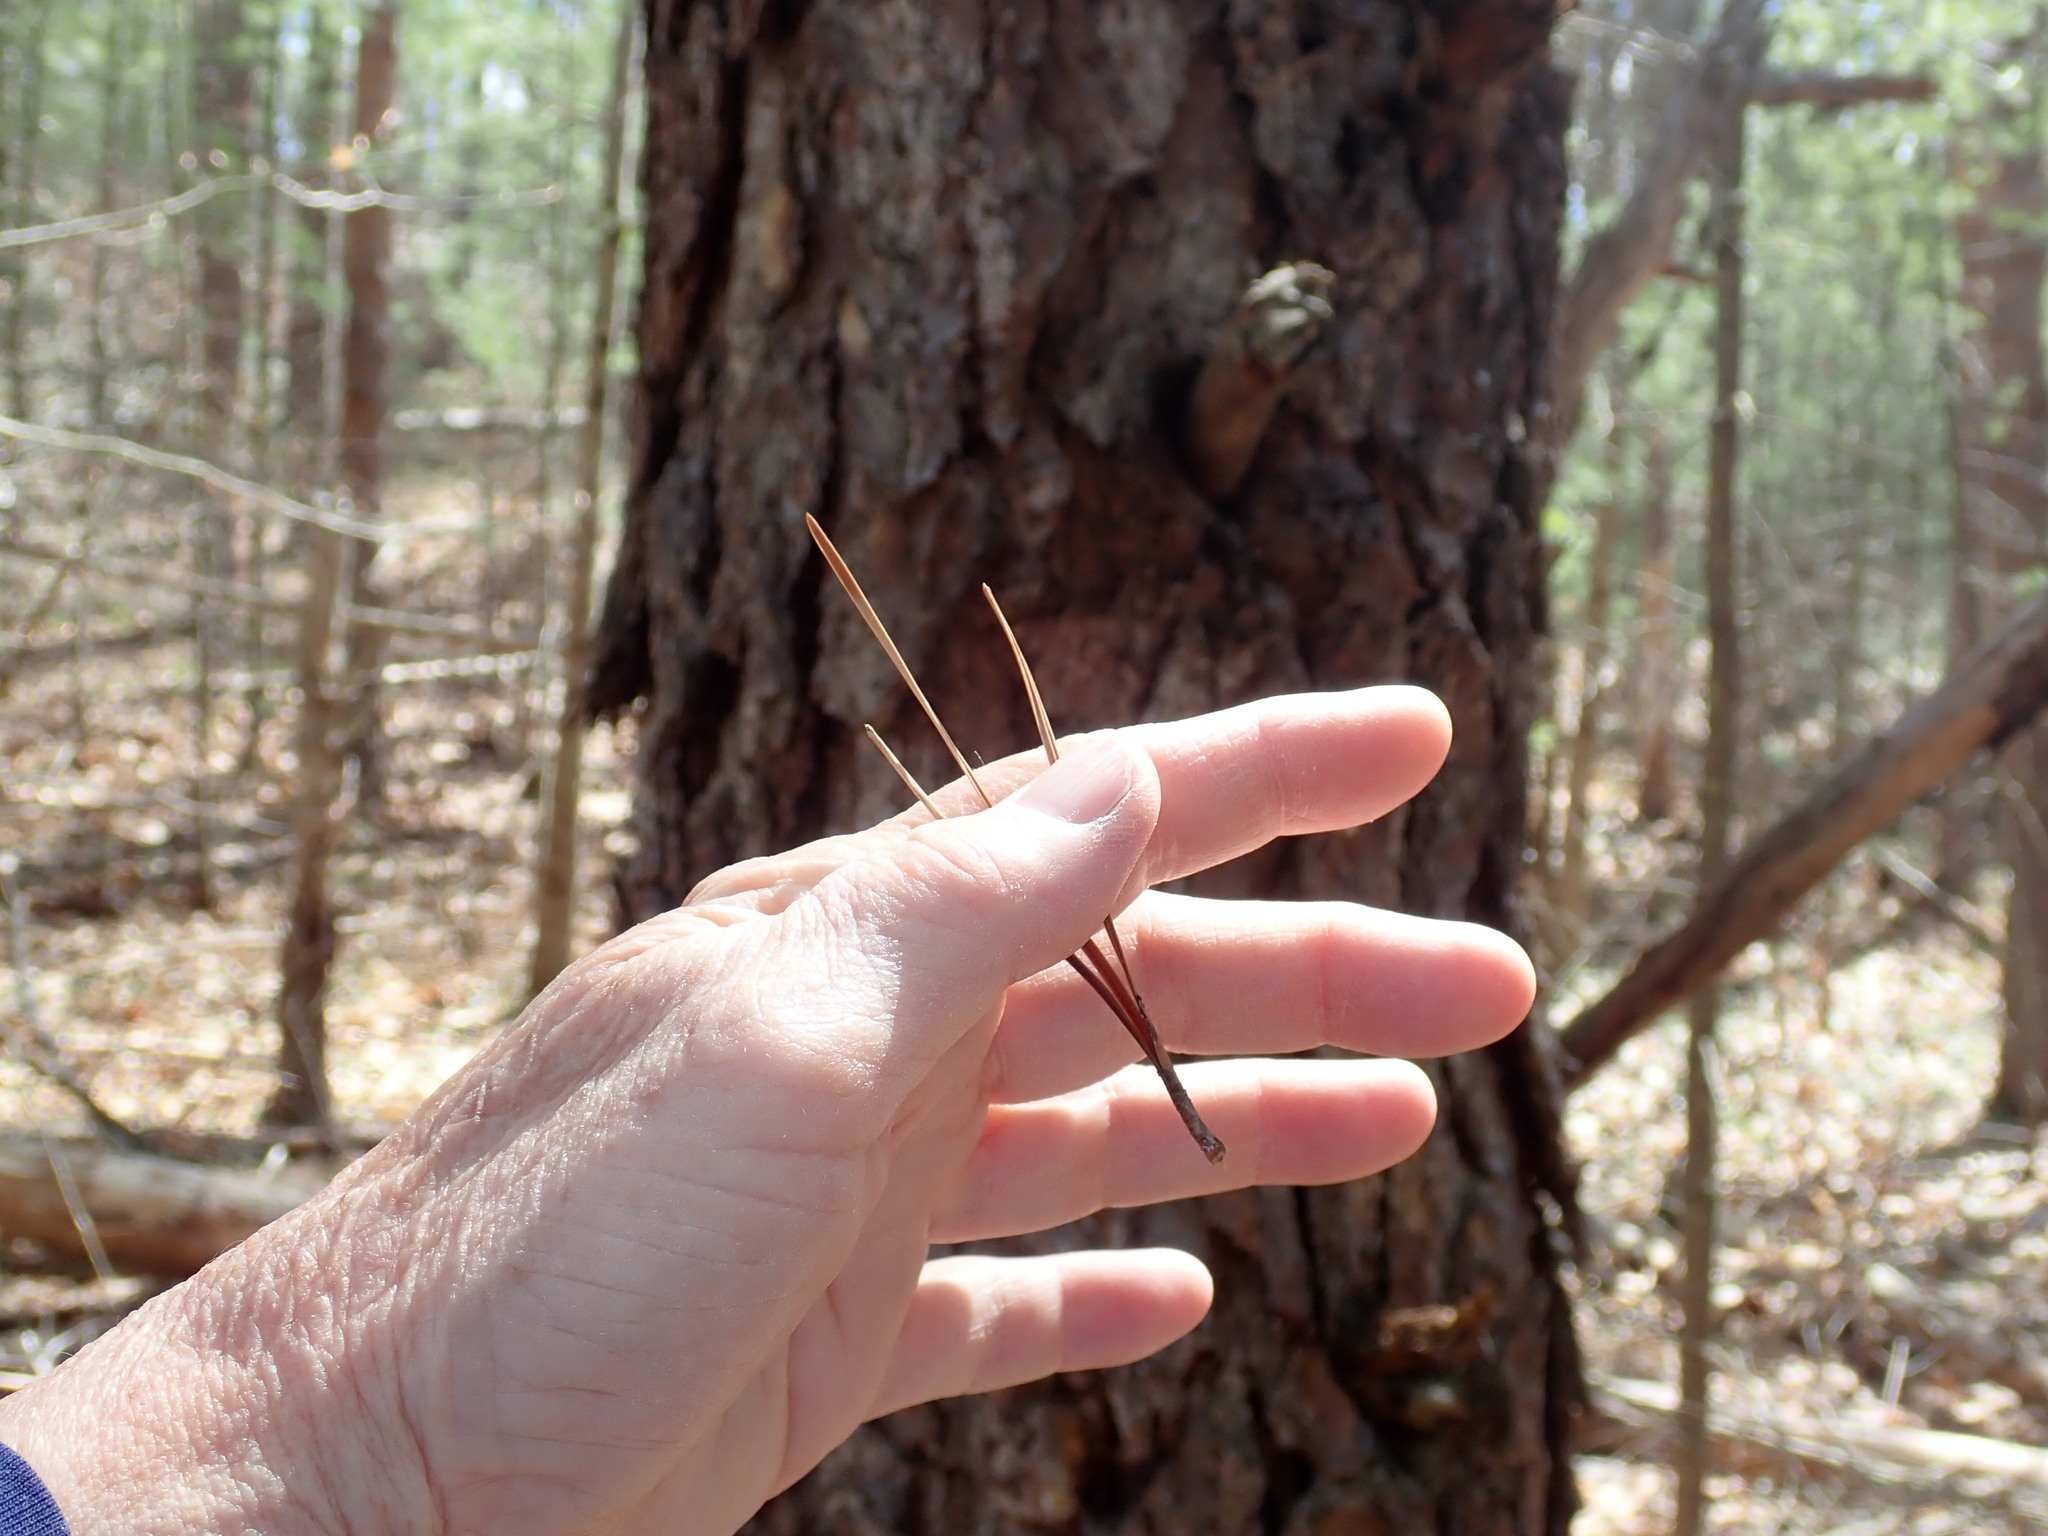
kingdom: Plantae
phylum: Tracheophyta
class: Pinopsida
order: Pinales
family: Pinaceae
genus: Pinus
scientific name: Pinus rigida
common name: Pitch pine
